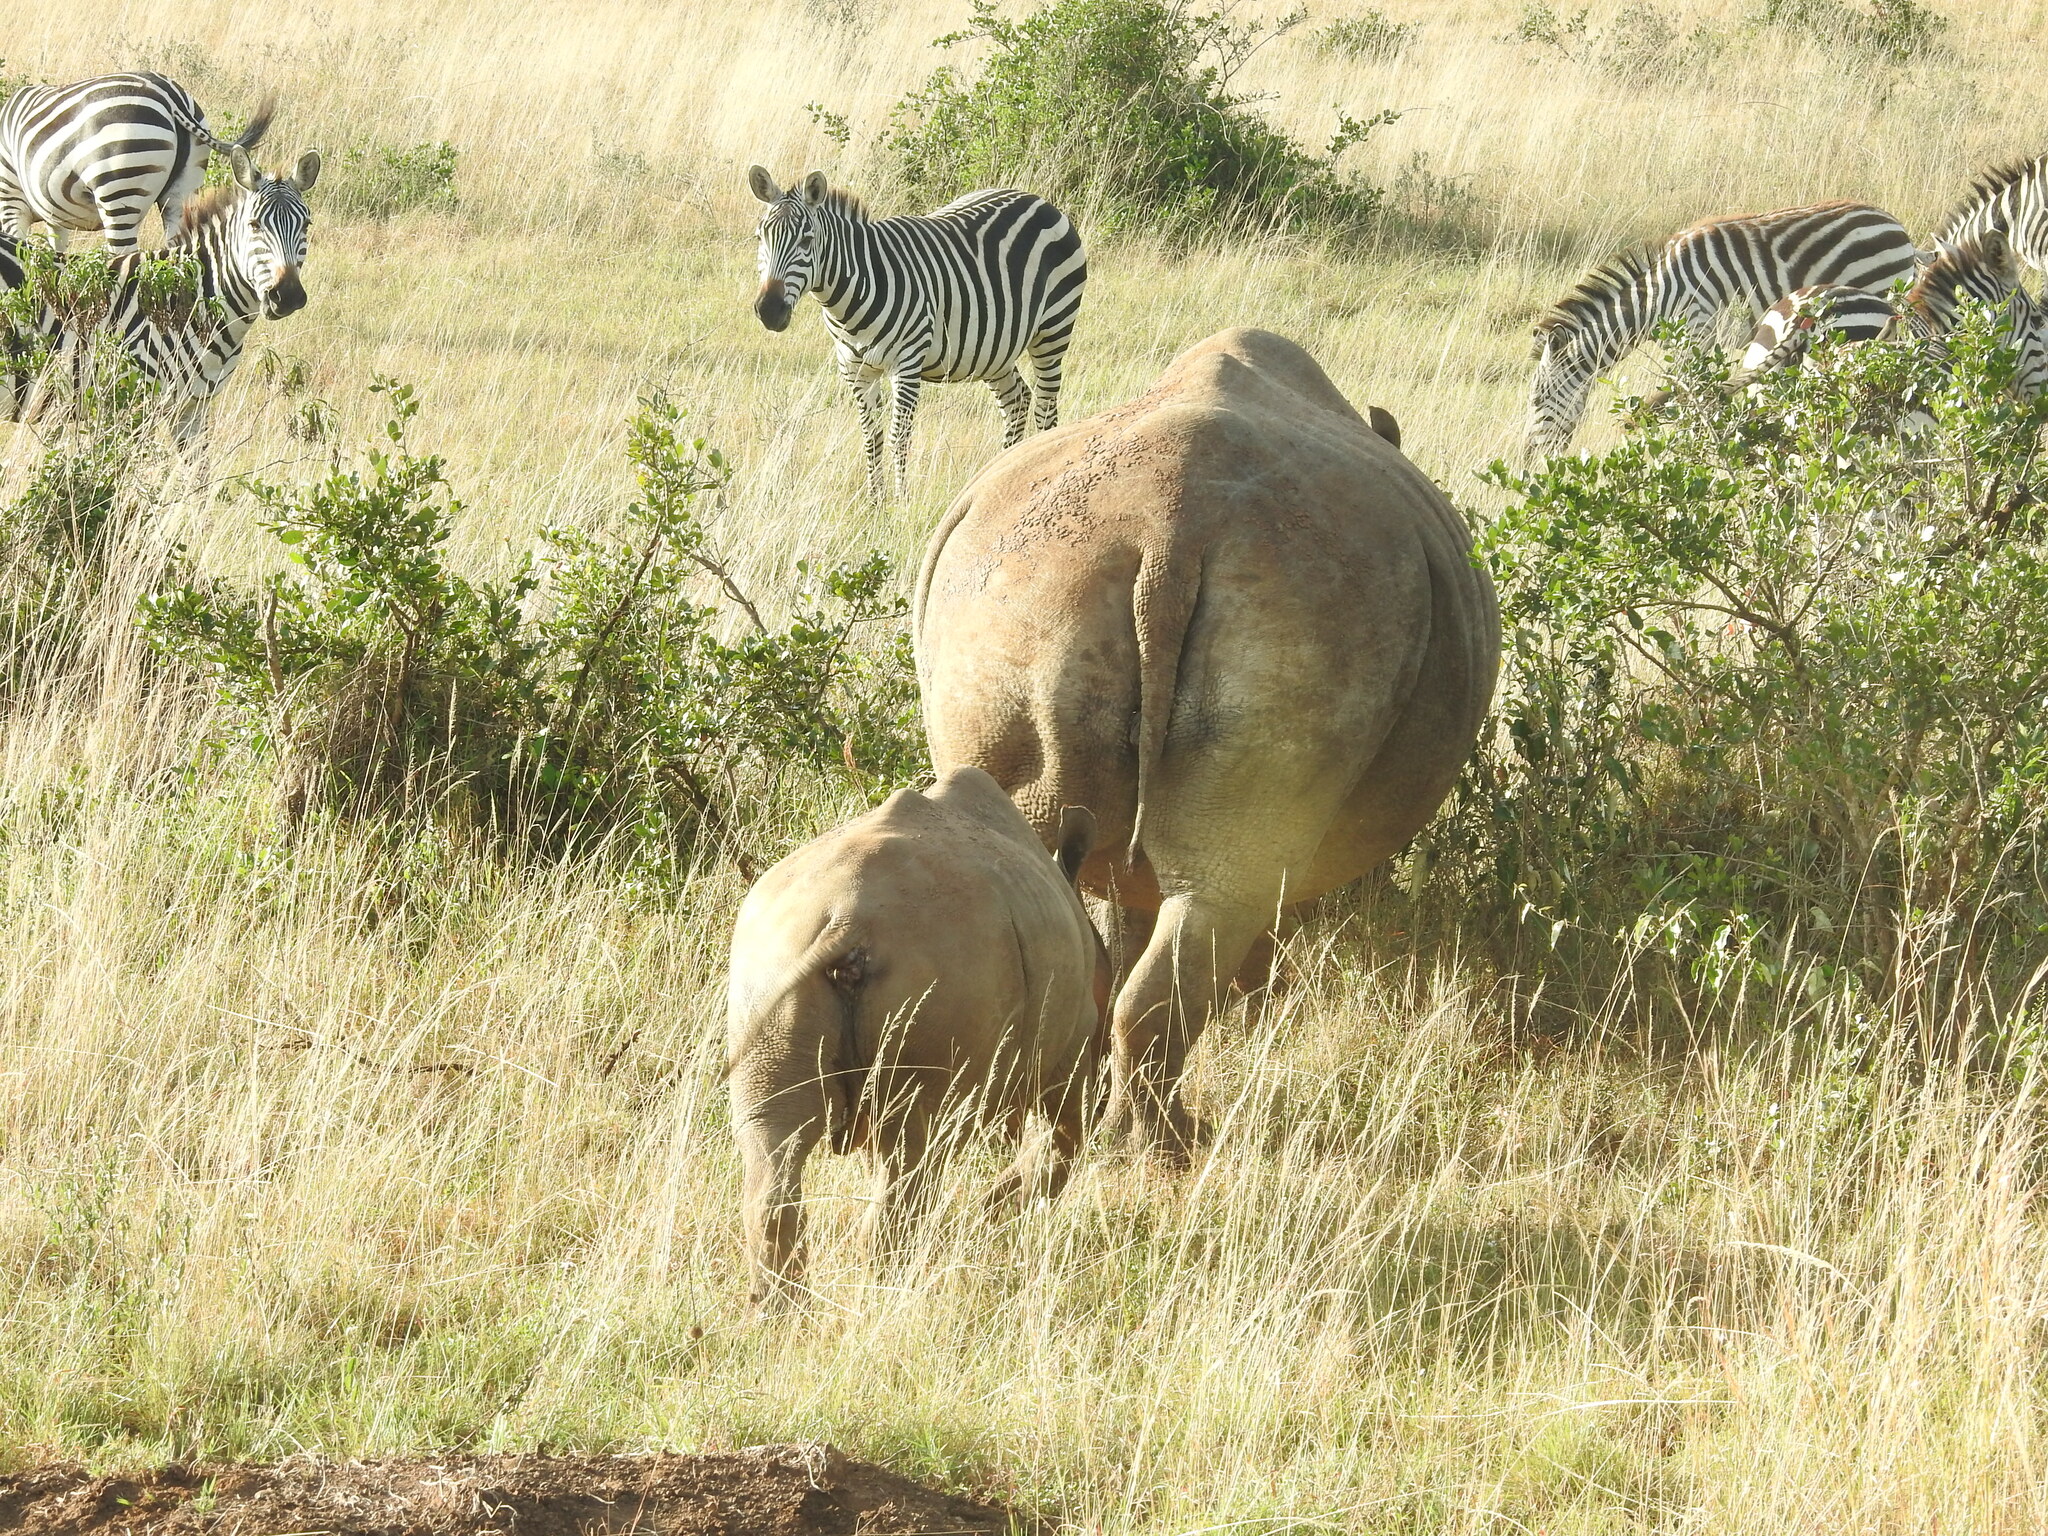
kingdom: Animalia
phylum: Chordata
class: Mammalia
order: Perissodactyla
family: Equidae
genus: Equus
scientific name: Equus quagga
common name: Plains zebra
